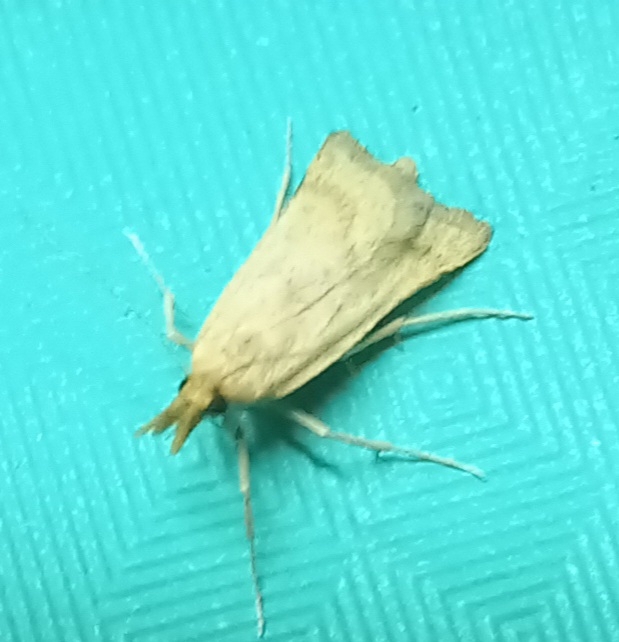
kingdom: Animalia
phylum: Arthropoda
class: Insecta
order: Lepidoptera
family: Pyralidae
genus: Synaphe
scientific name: Synaphe punctalis
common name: Long-legged tabby
